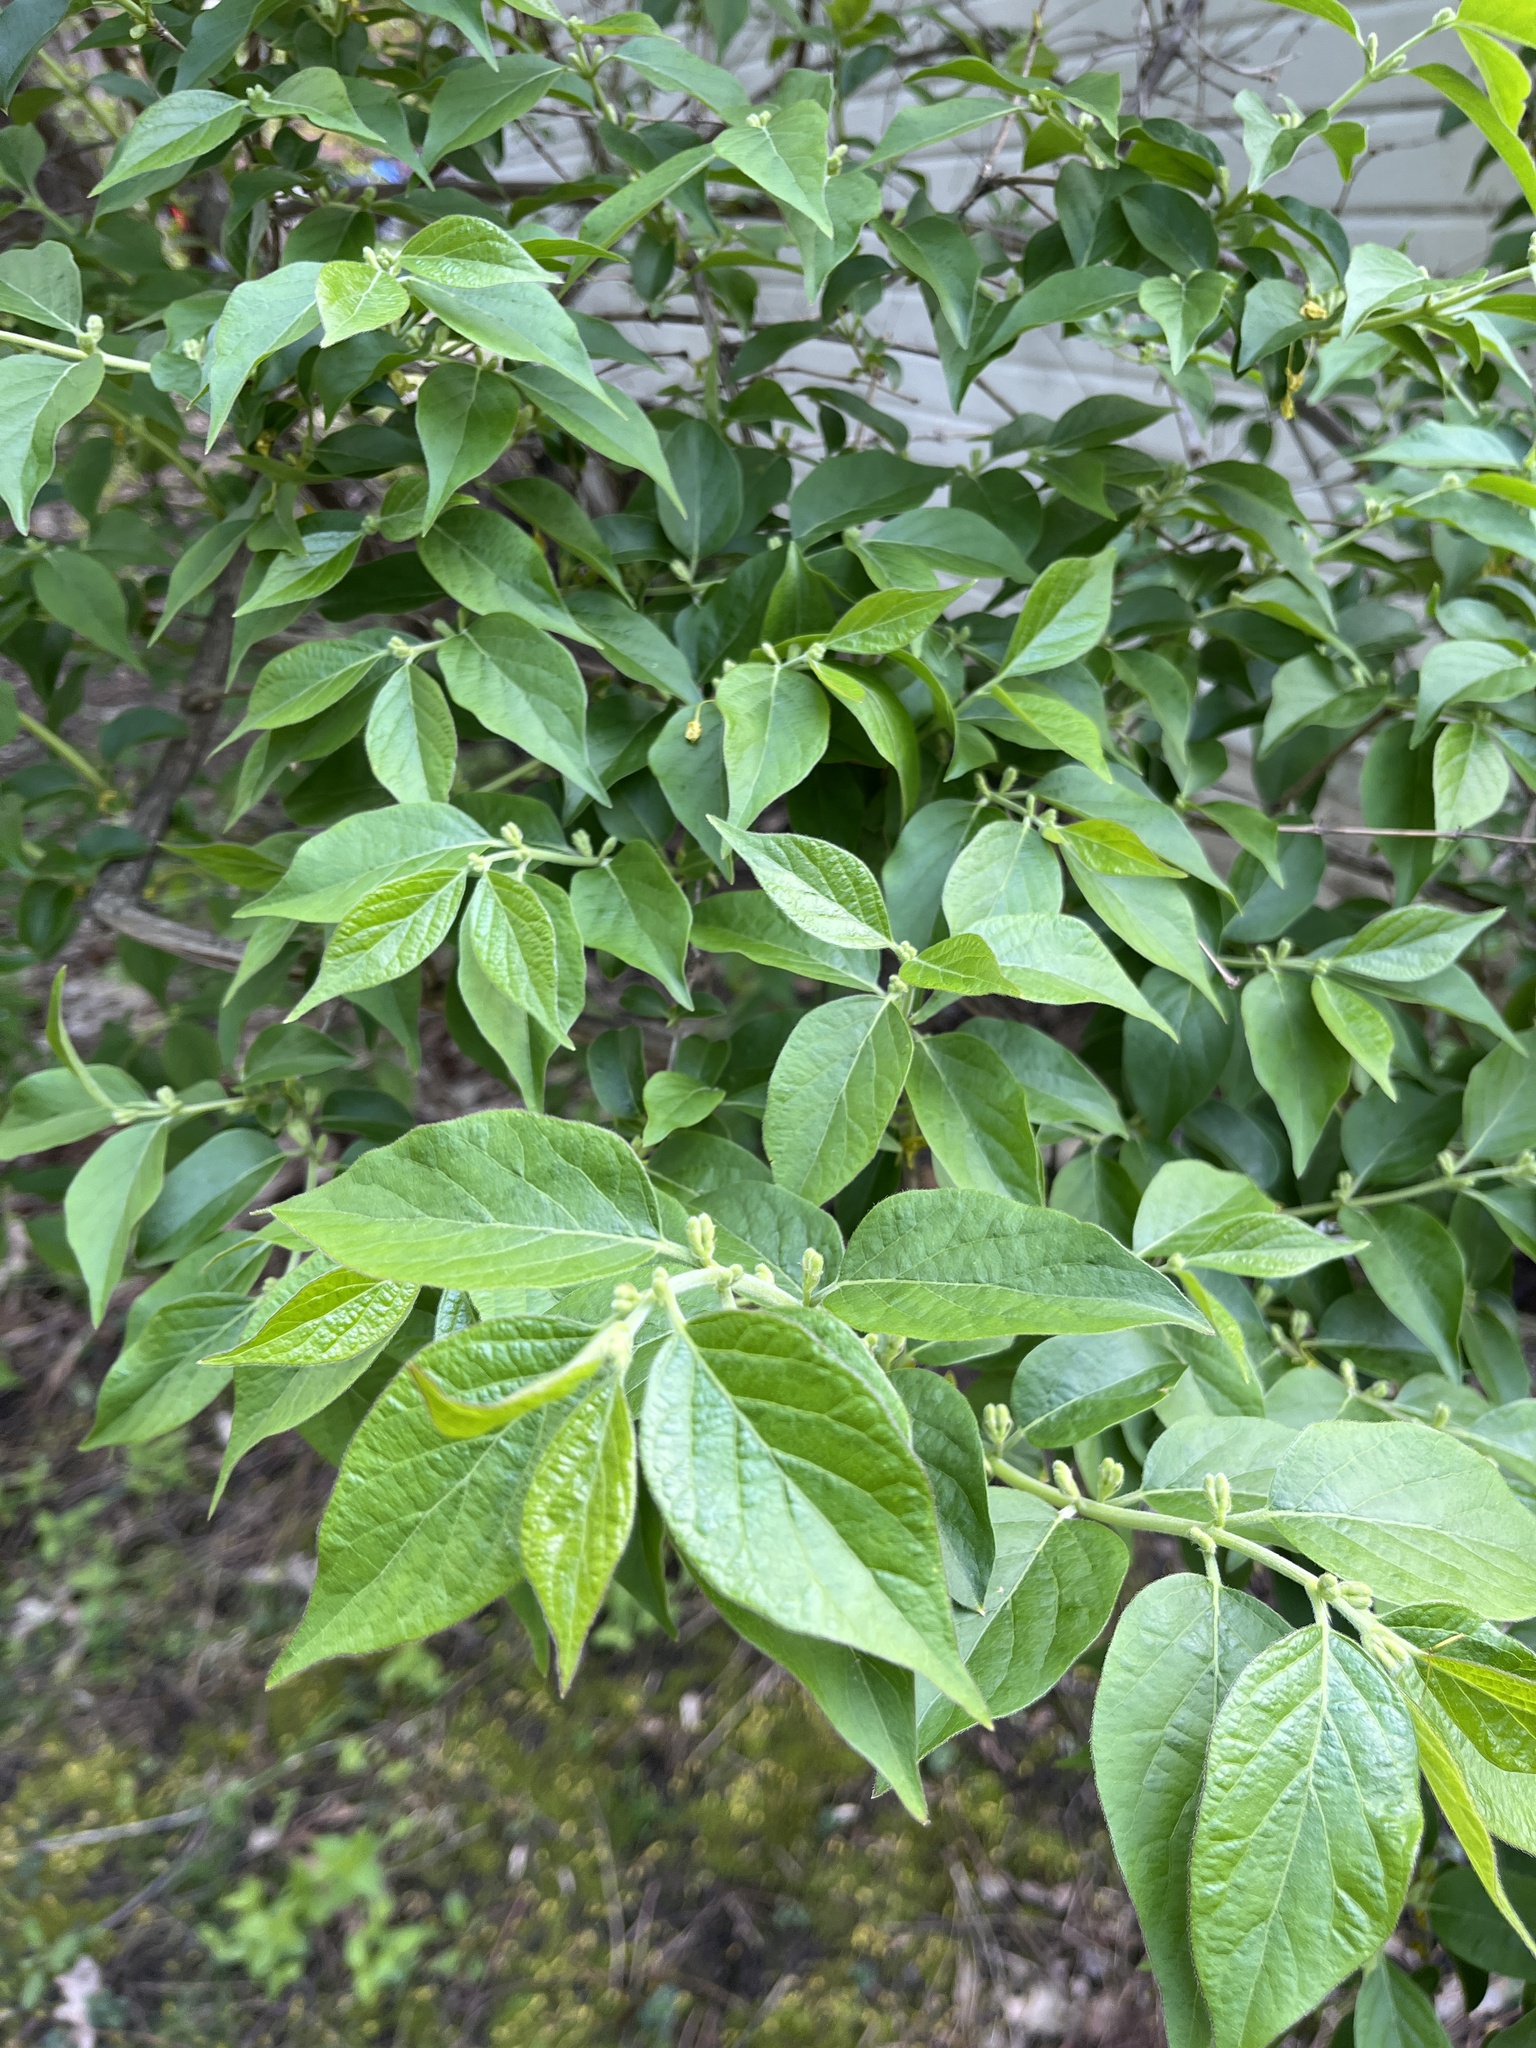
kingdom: Plantae
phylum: Tracheophyta
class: Magnoliopsida
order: Dipsacales
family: Caprifoliaceae
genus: Lonicera
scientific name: Lonicera maackii
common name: Amur honeysuckle
